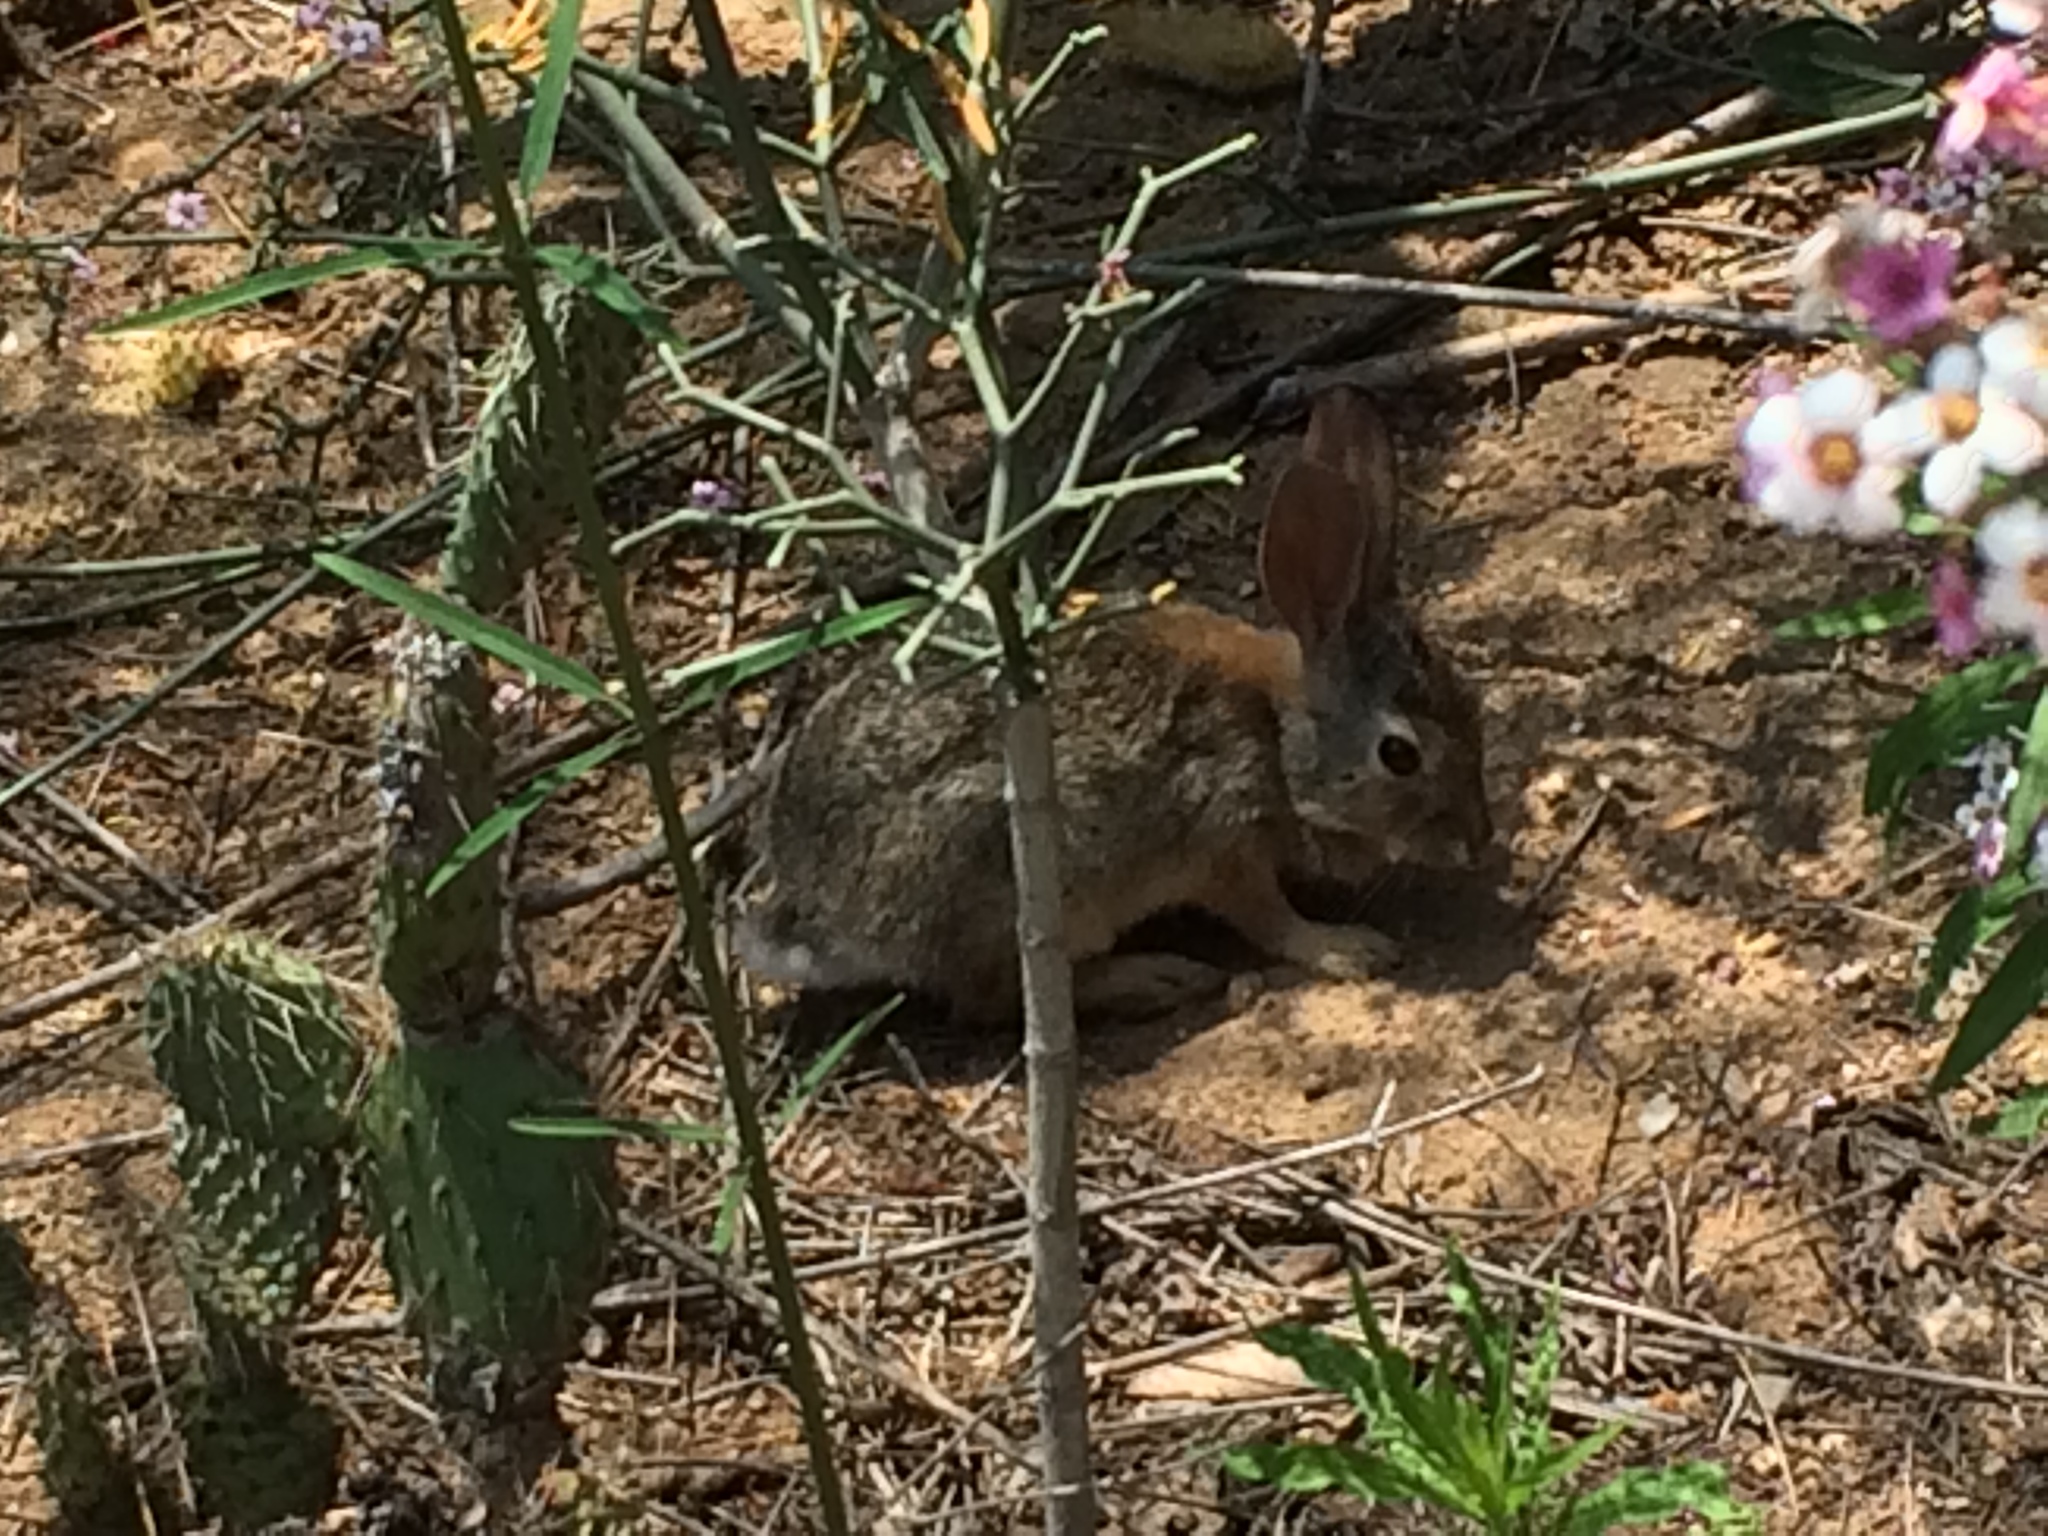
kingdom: Animalia
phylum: Chordata
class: Mammalia
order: Lagomorpha
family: Leporidae
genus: Sylvilagus
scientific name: Sylvilagus audubonii
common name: Desert cottontail
